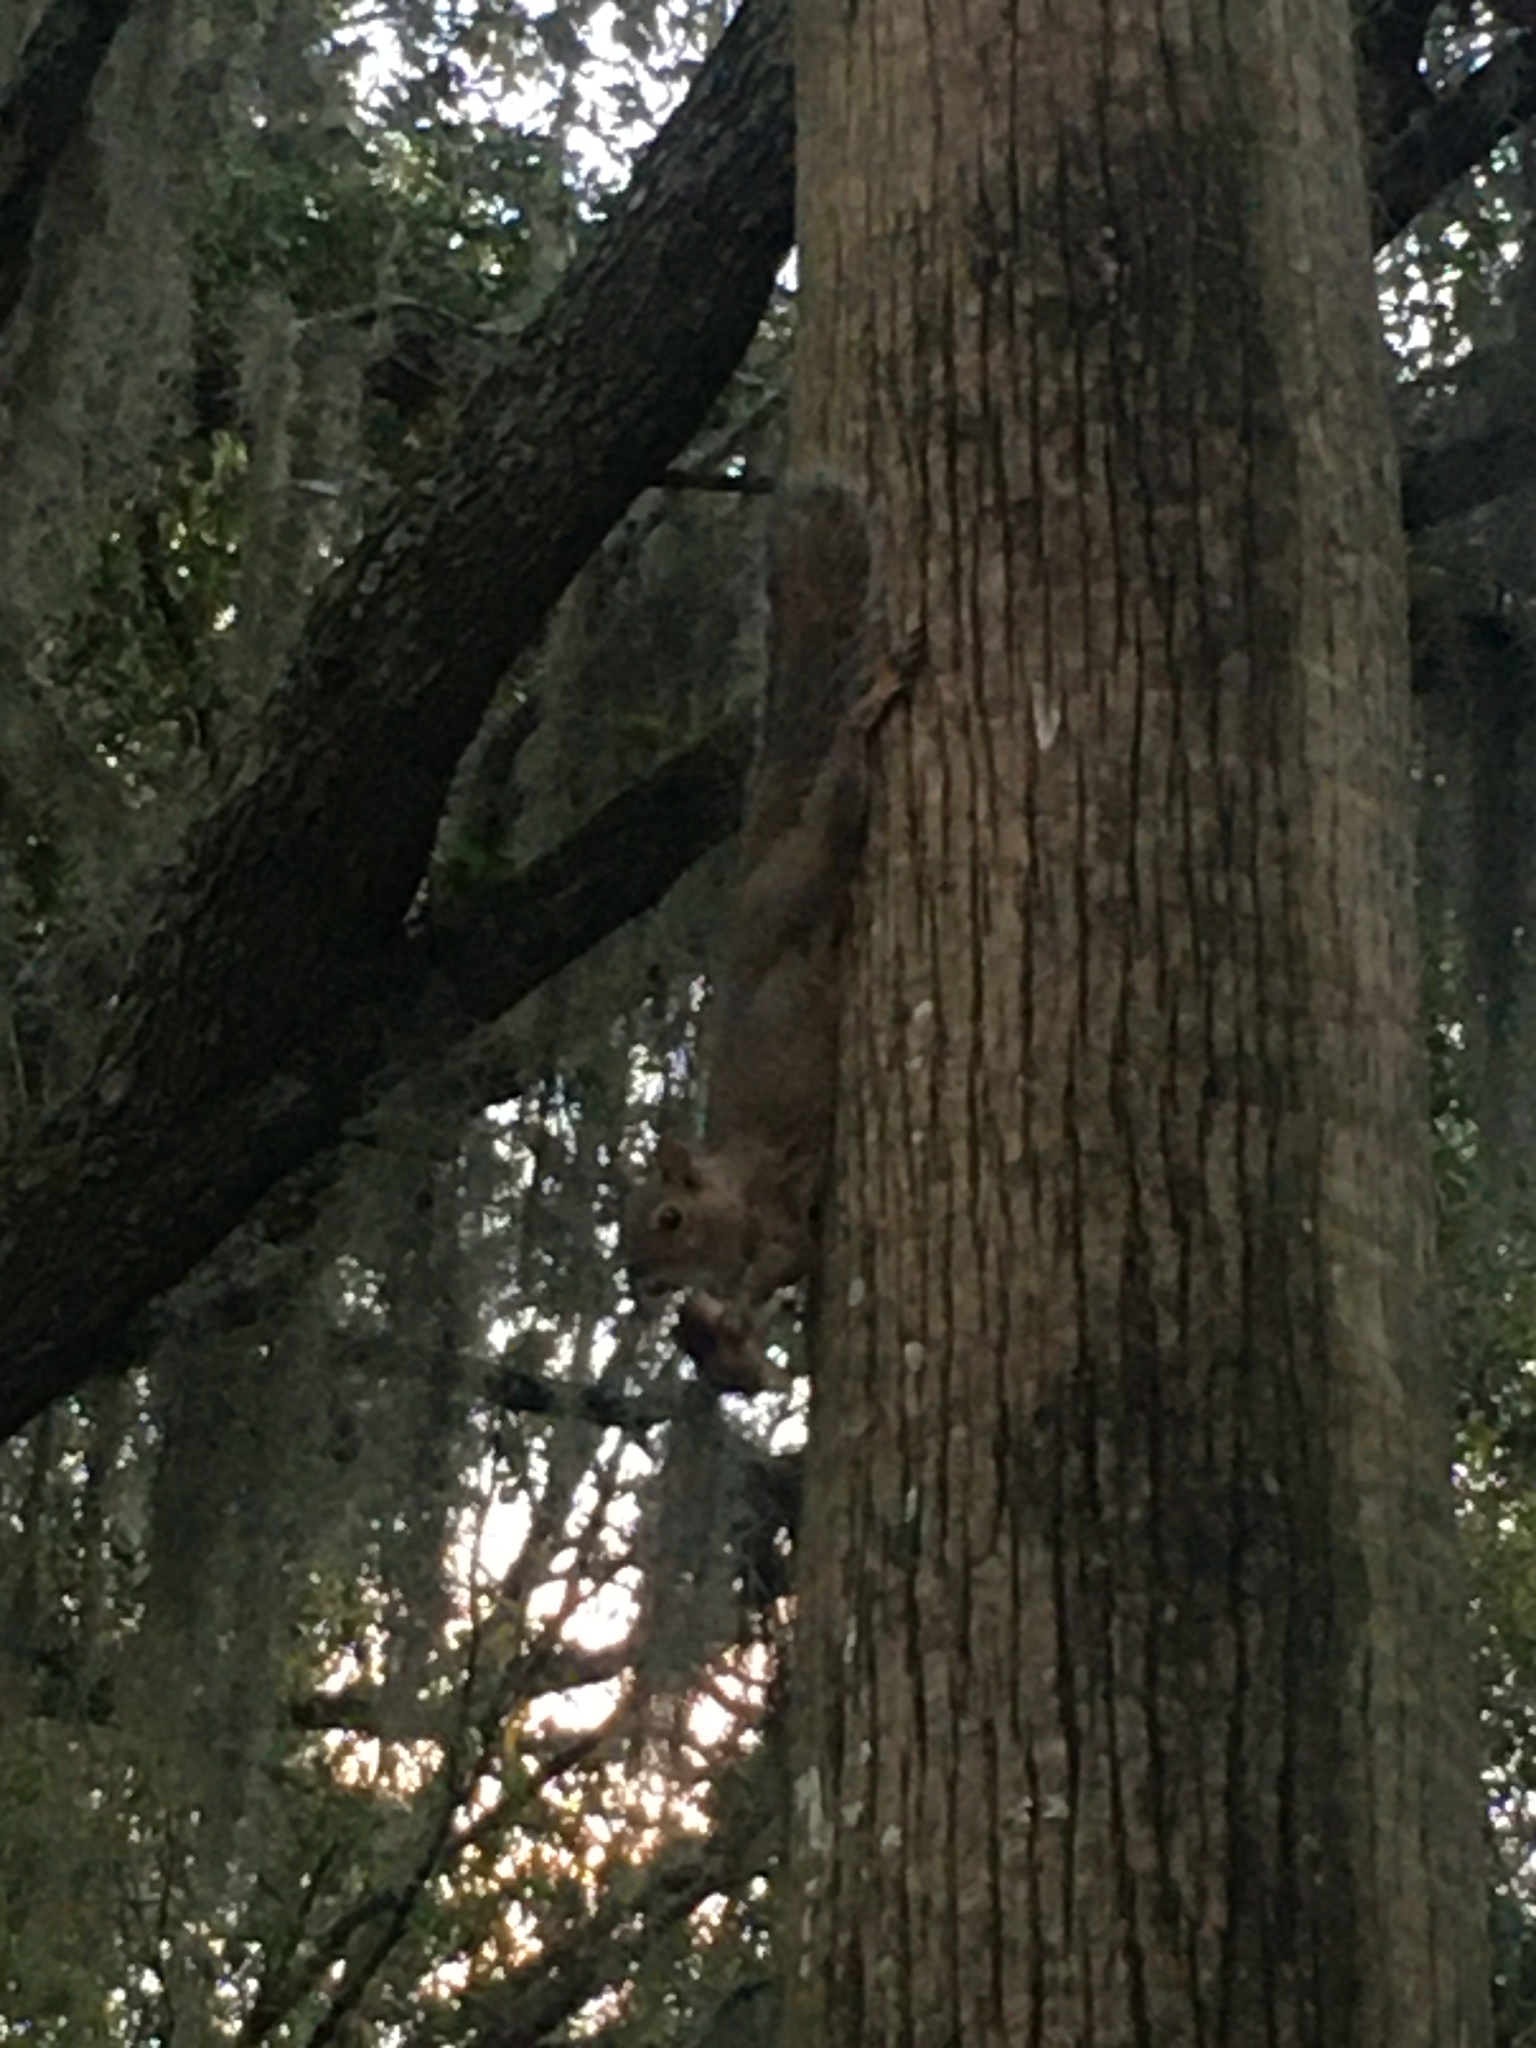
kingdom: Animalia
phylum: Chordata
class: Mammalia
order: Rodentia
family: Sciuridae
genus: Sciurus
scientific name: Sciurus carolinensis
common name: Eastern gray squirrel
